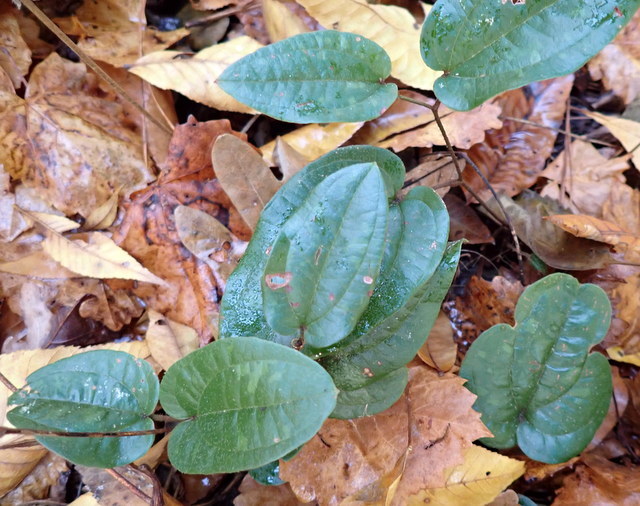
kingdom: Plantae
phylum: Tracheophyta
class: Liliopsida
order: Liliales
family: Smilacaceae
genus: Smilax
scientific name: Smilax pumila
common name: Sarsaparilla-vine
